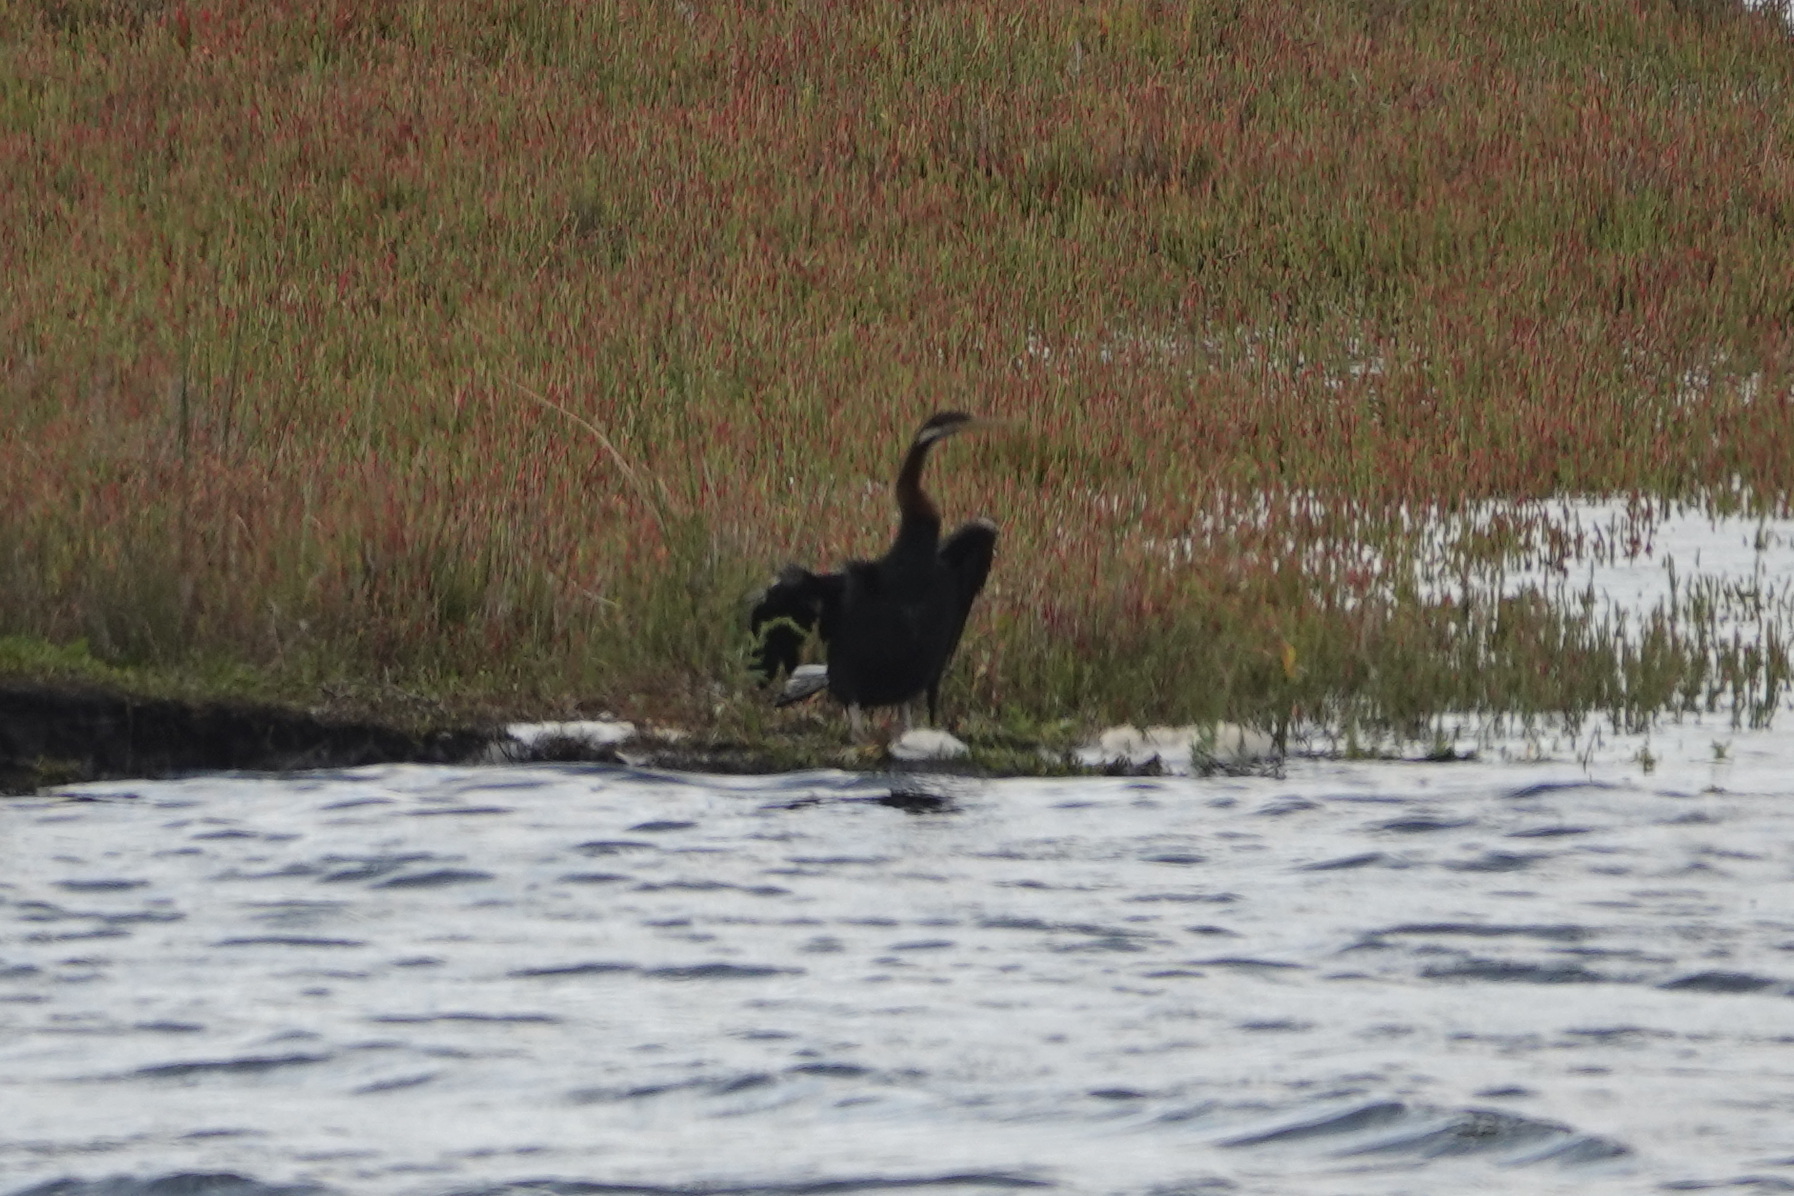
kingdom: Animalia
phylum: Chordata
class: Aves
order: Suliformes
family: Anhingidae
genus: Anhinga
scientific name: Anhinga novaehollandiae
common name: Australasian darter
